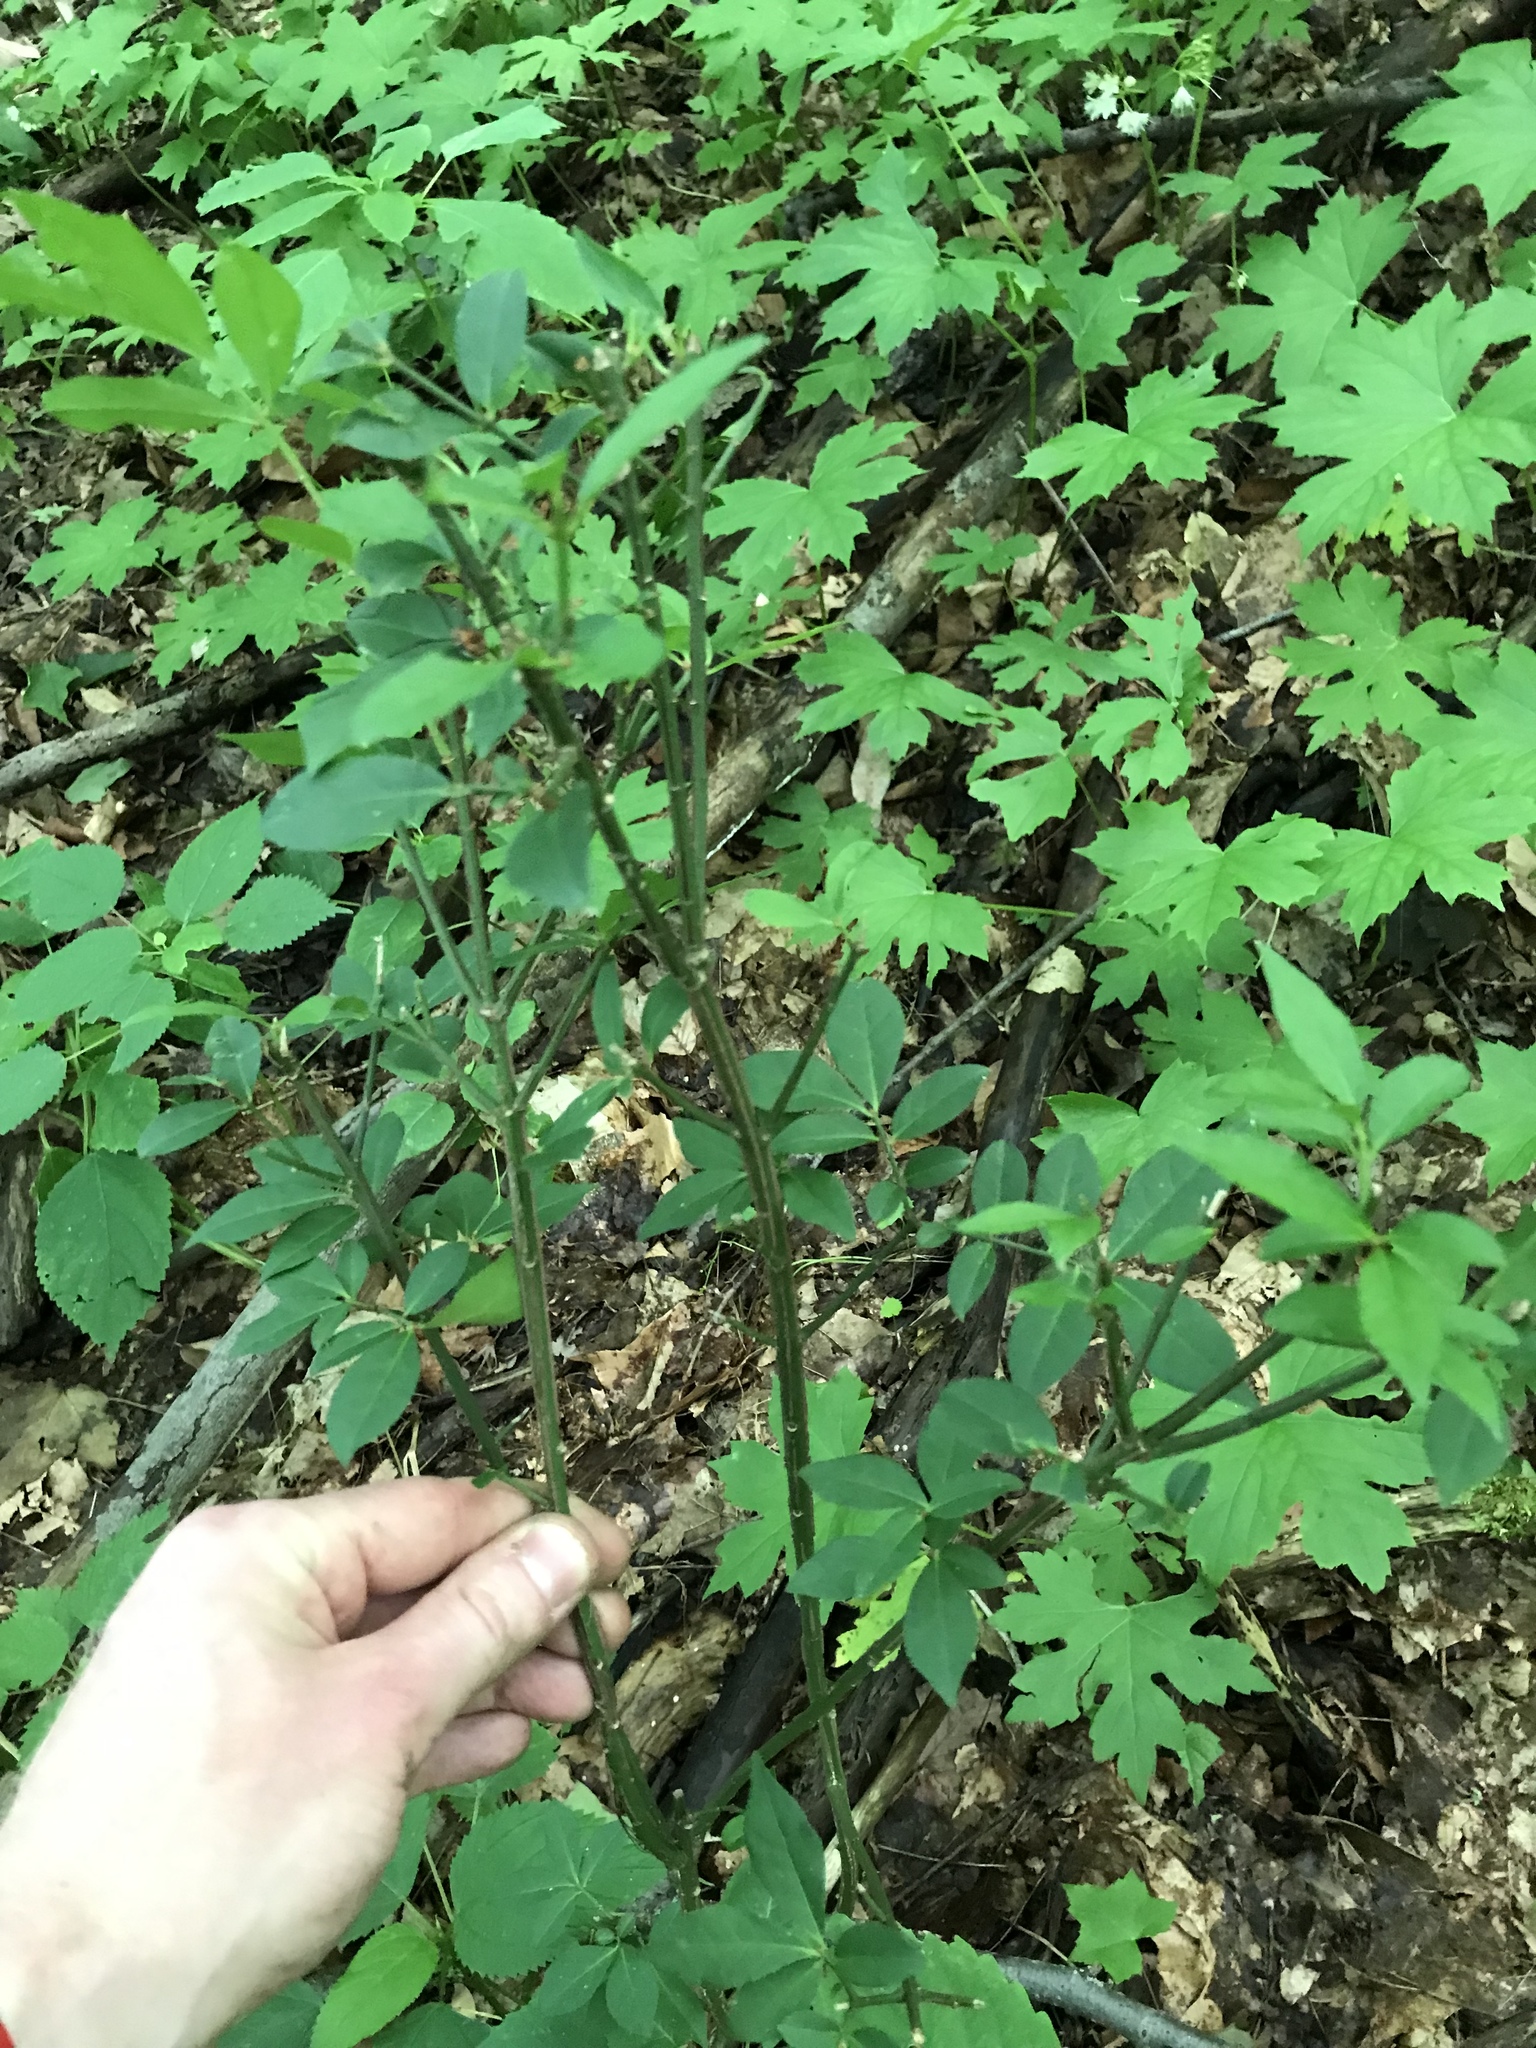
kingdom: Plantae
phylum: Tracheophyta
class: Magnoliopsida
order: Celastrales
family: Celastraceae
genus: Euonymus
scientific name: Euonymus alatus
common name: Winged euonymus
